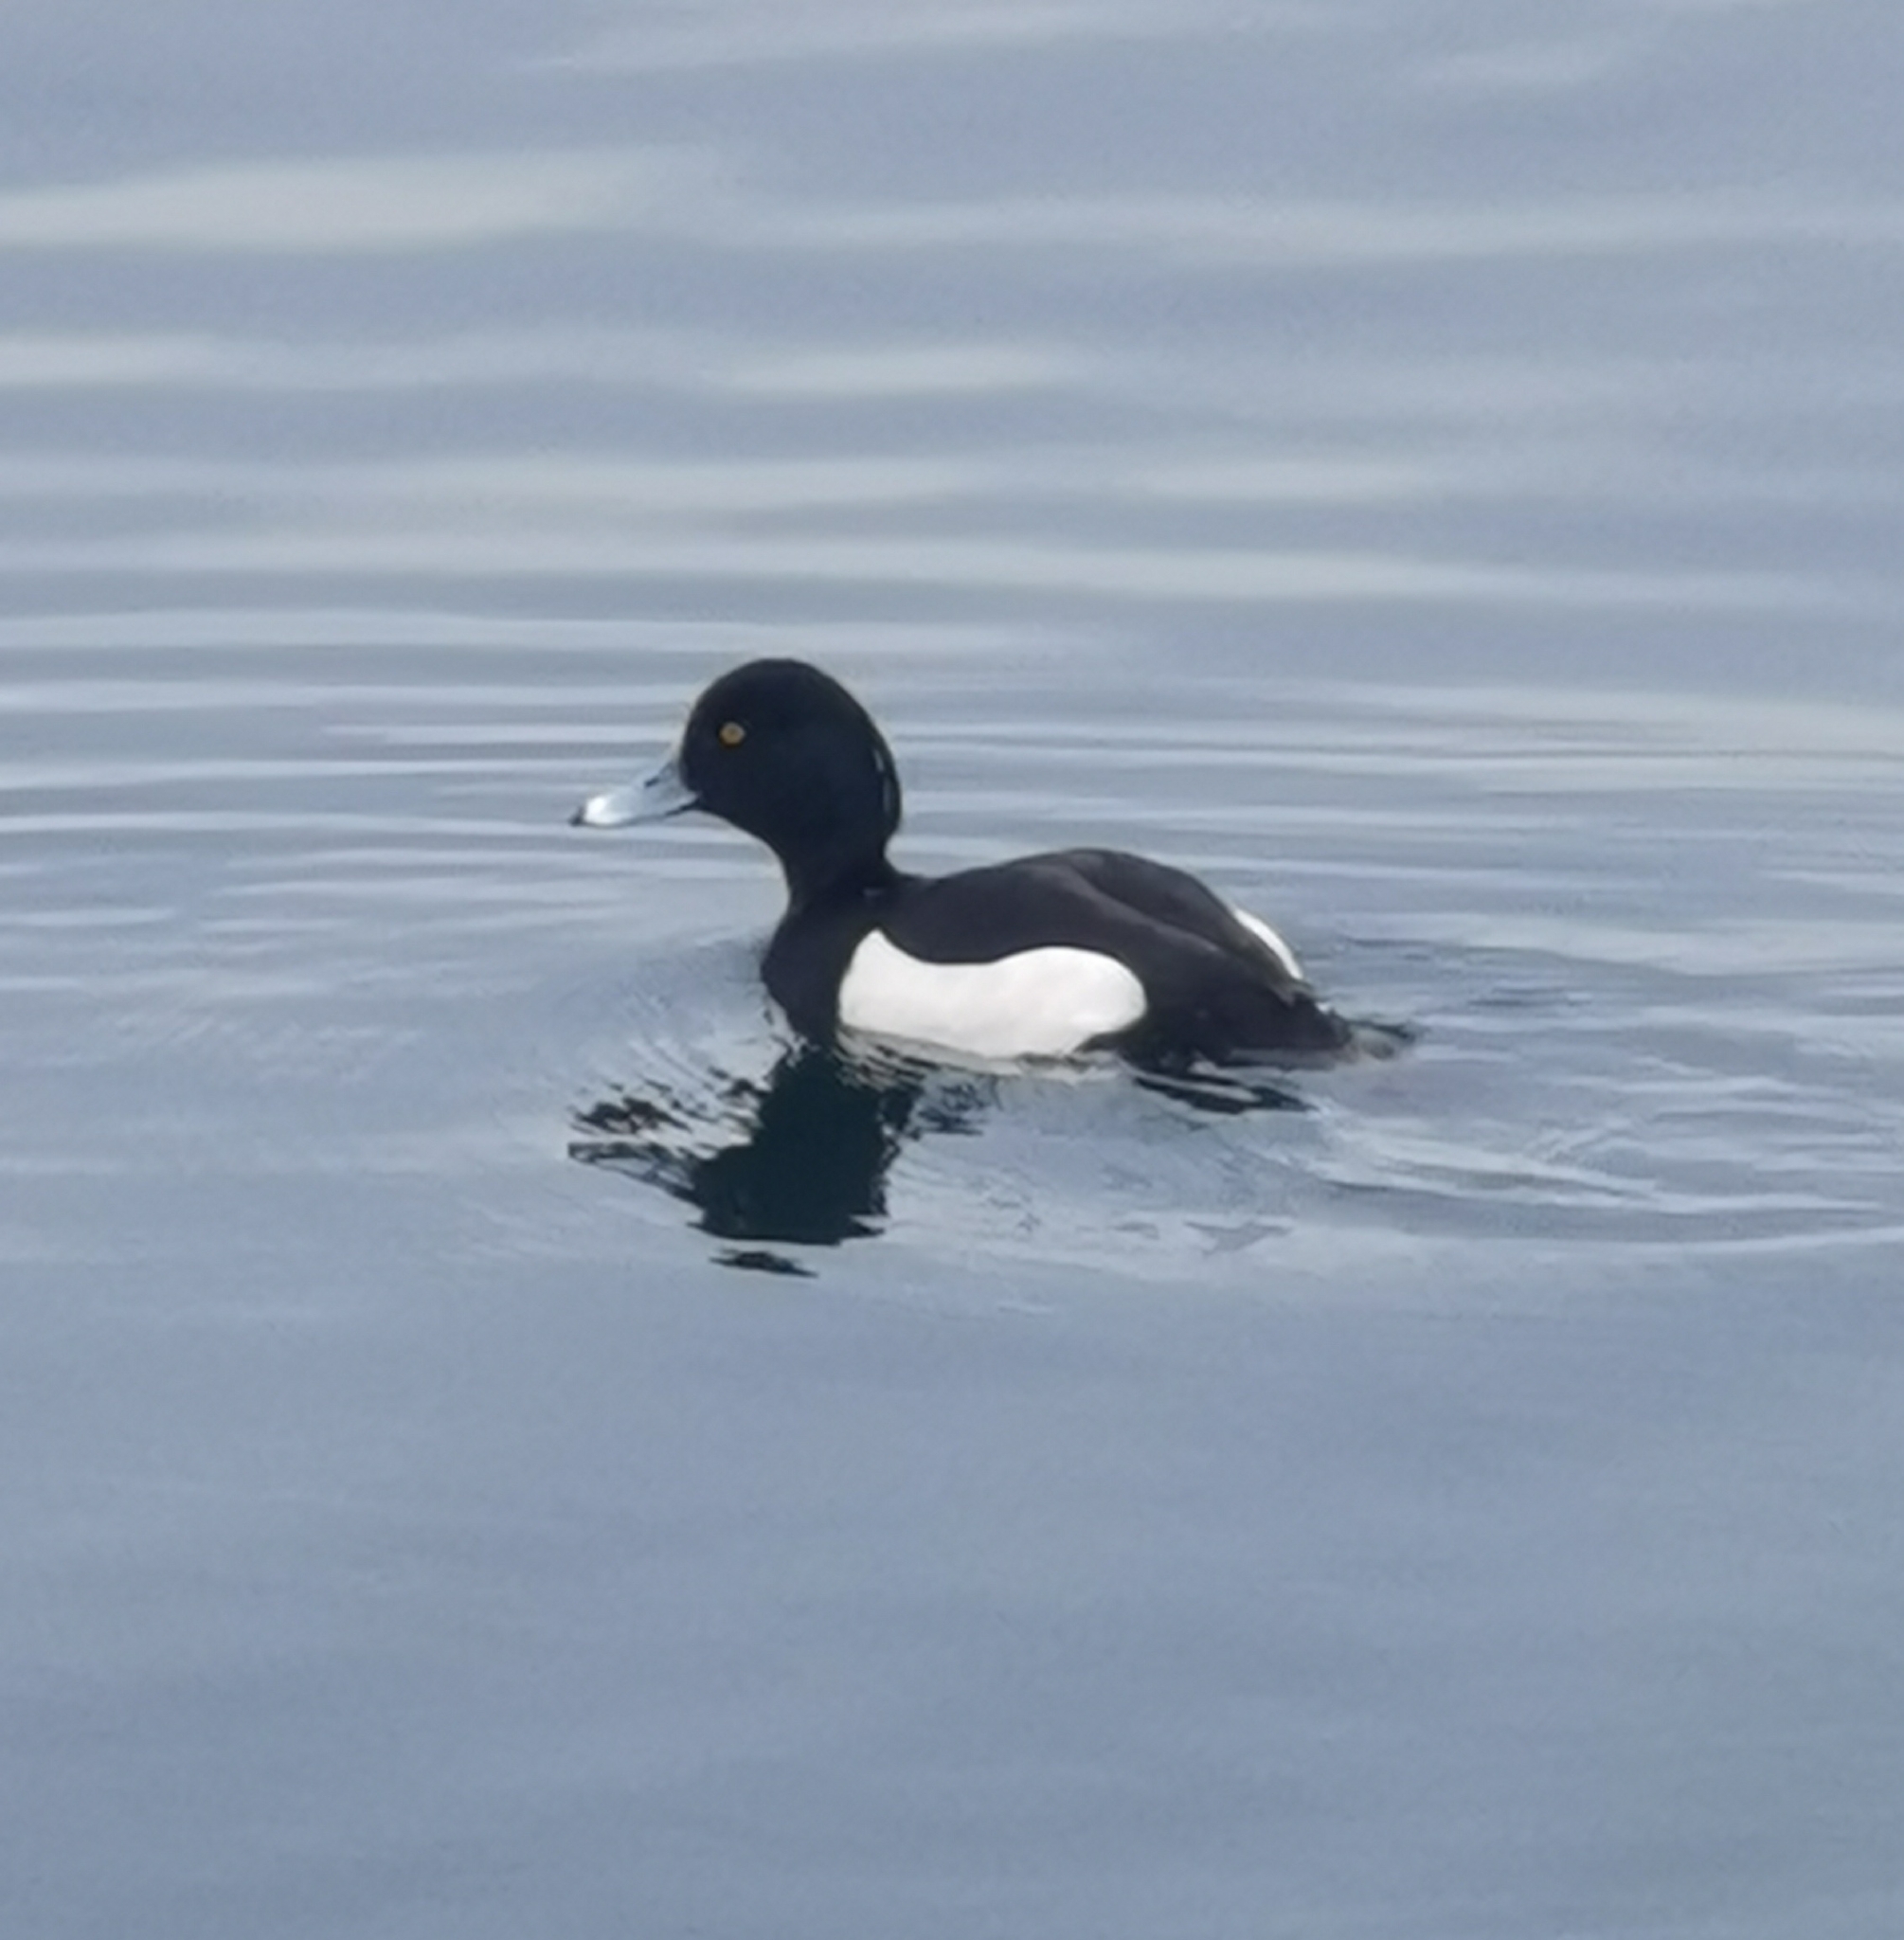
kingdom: Animalia
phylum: Chordata
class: Aves
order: Anseriformes
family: Anatidae
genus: Aythya
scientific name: Aythya fuligula
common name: Tufted duck
